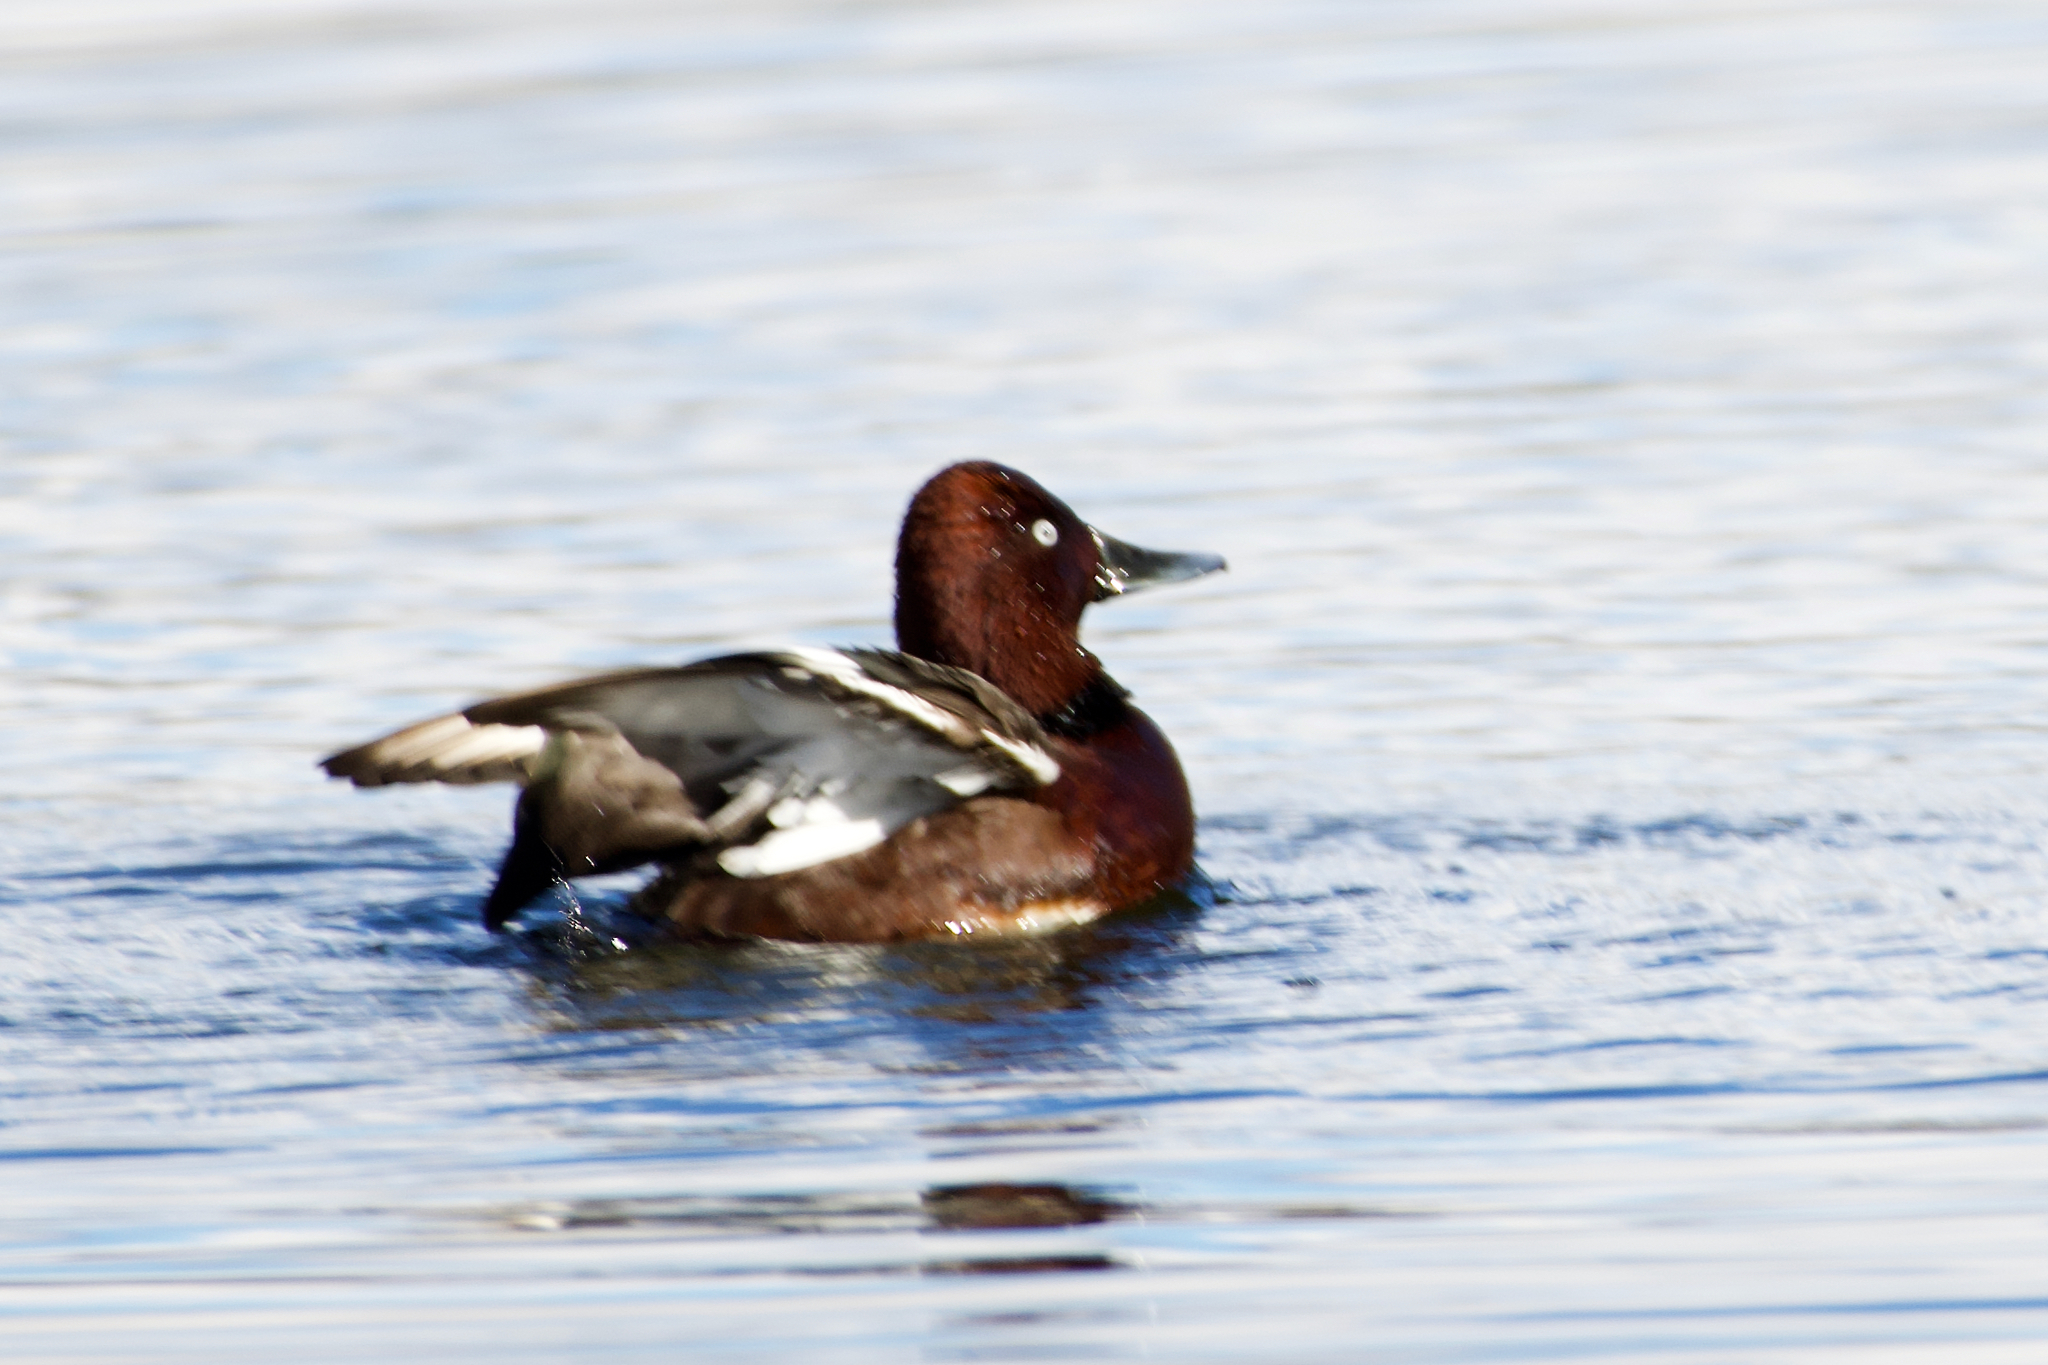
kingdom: Animalia
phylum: Chordata
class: Aves
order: Anseriformes
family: Anatidae
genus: Aythya
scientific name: Aythya nyroca
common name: Ferruginous duck
